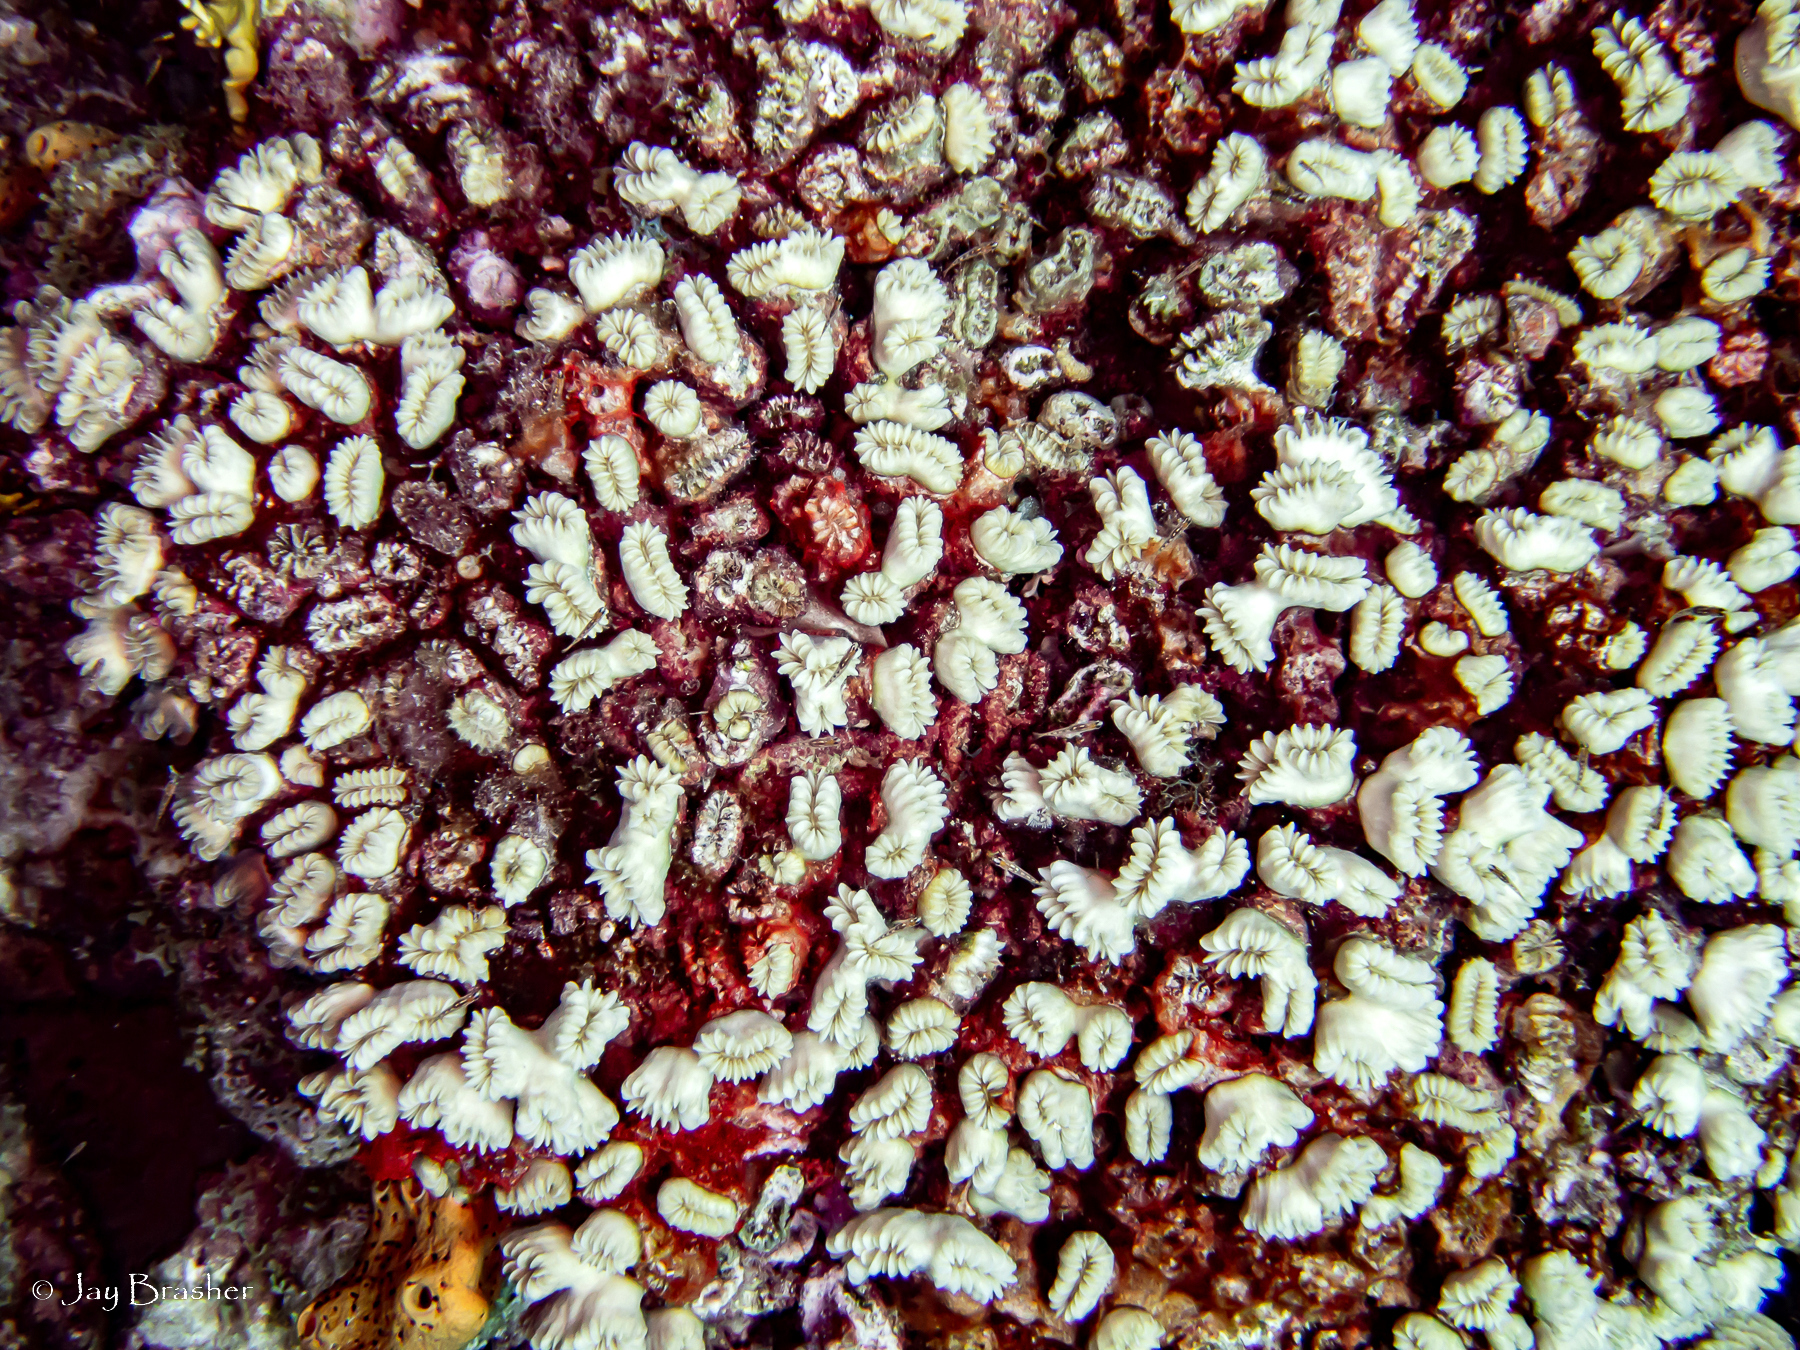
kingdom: Animalia
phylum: Cnidaria
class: Anthozoa
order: Scleractinia
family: Meandrinidae
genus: Eusmilia
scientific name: Eusmilia fastigiata
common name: Smooth flower coral
